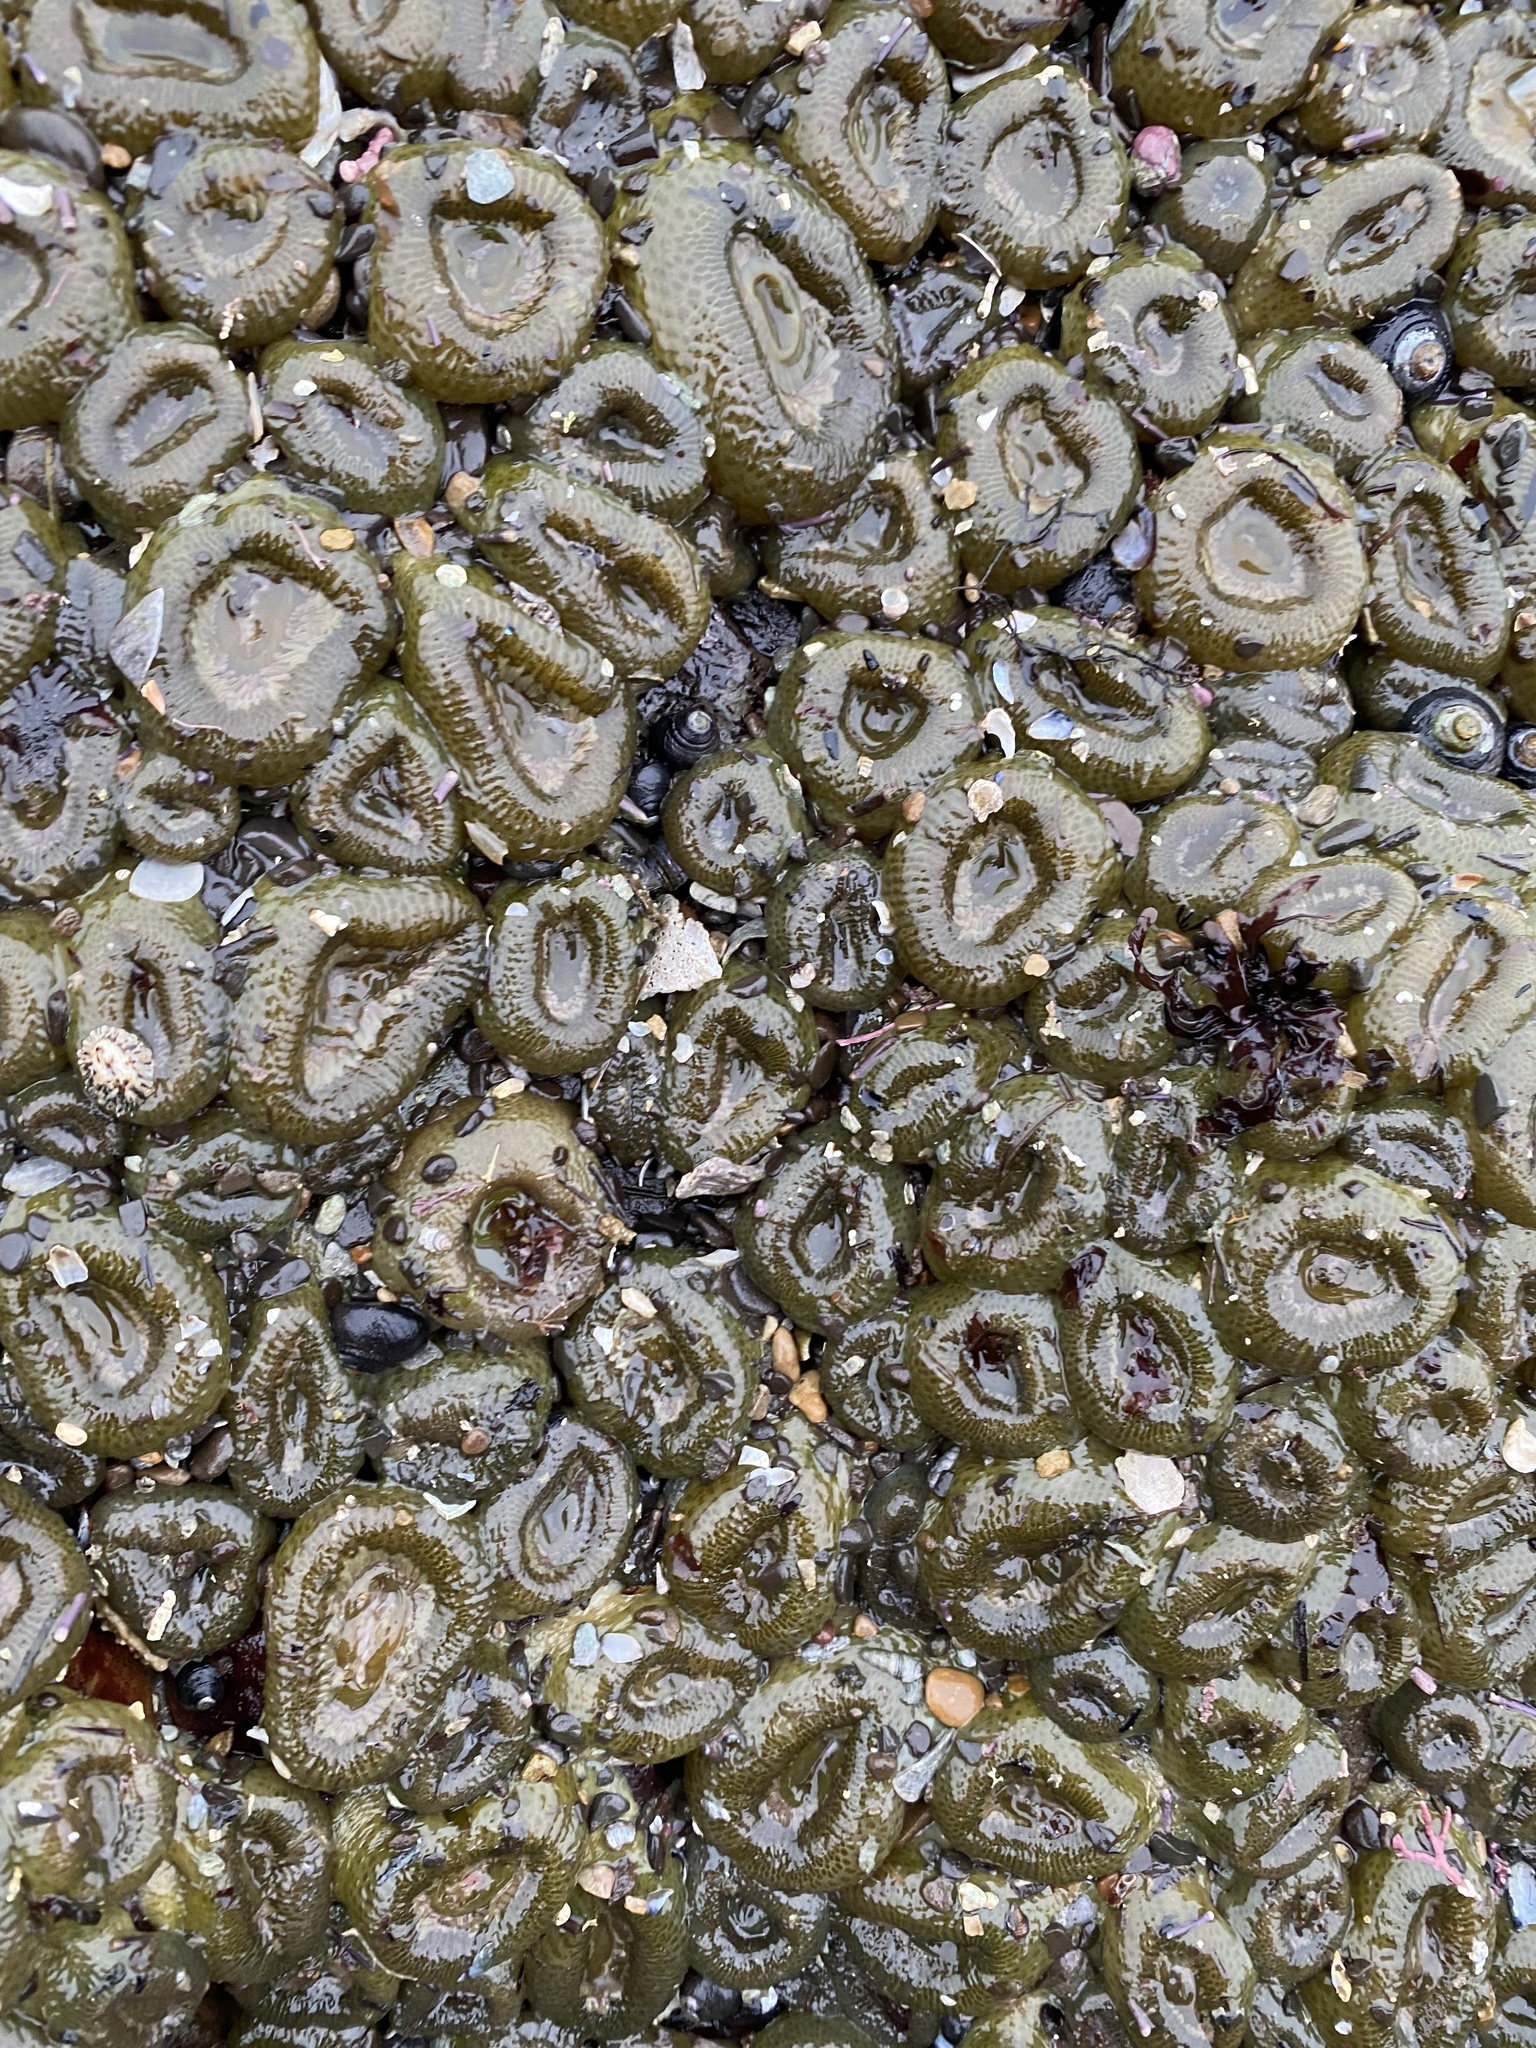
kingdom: Animalia
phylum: Cnidaria
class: Anthozoa
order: Actiniaria
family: Actiniidae
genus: Anthopleura
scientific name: Anthopleura elegantissima
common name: Clonal anemone
